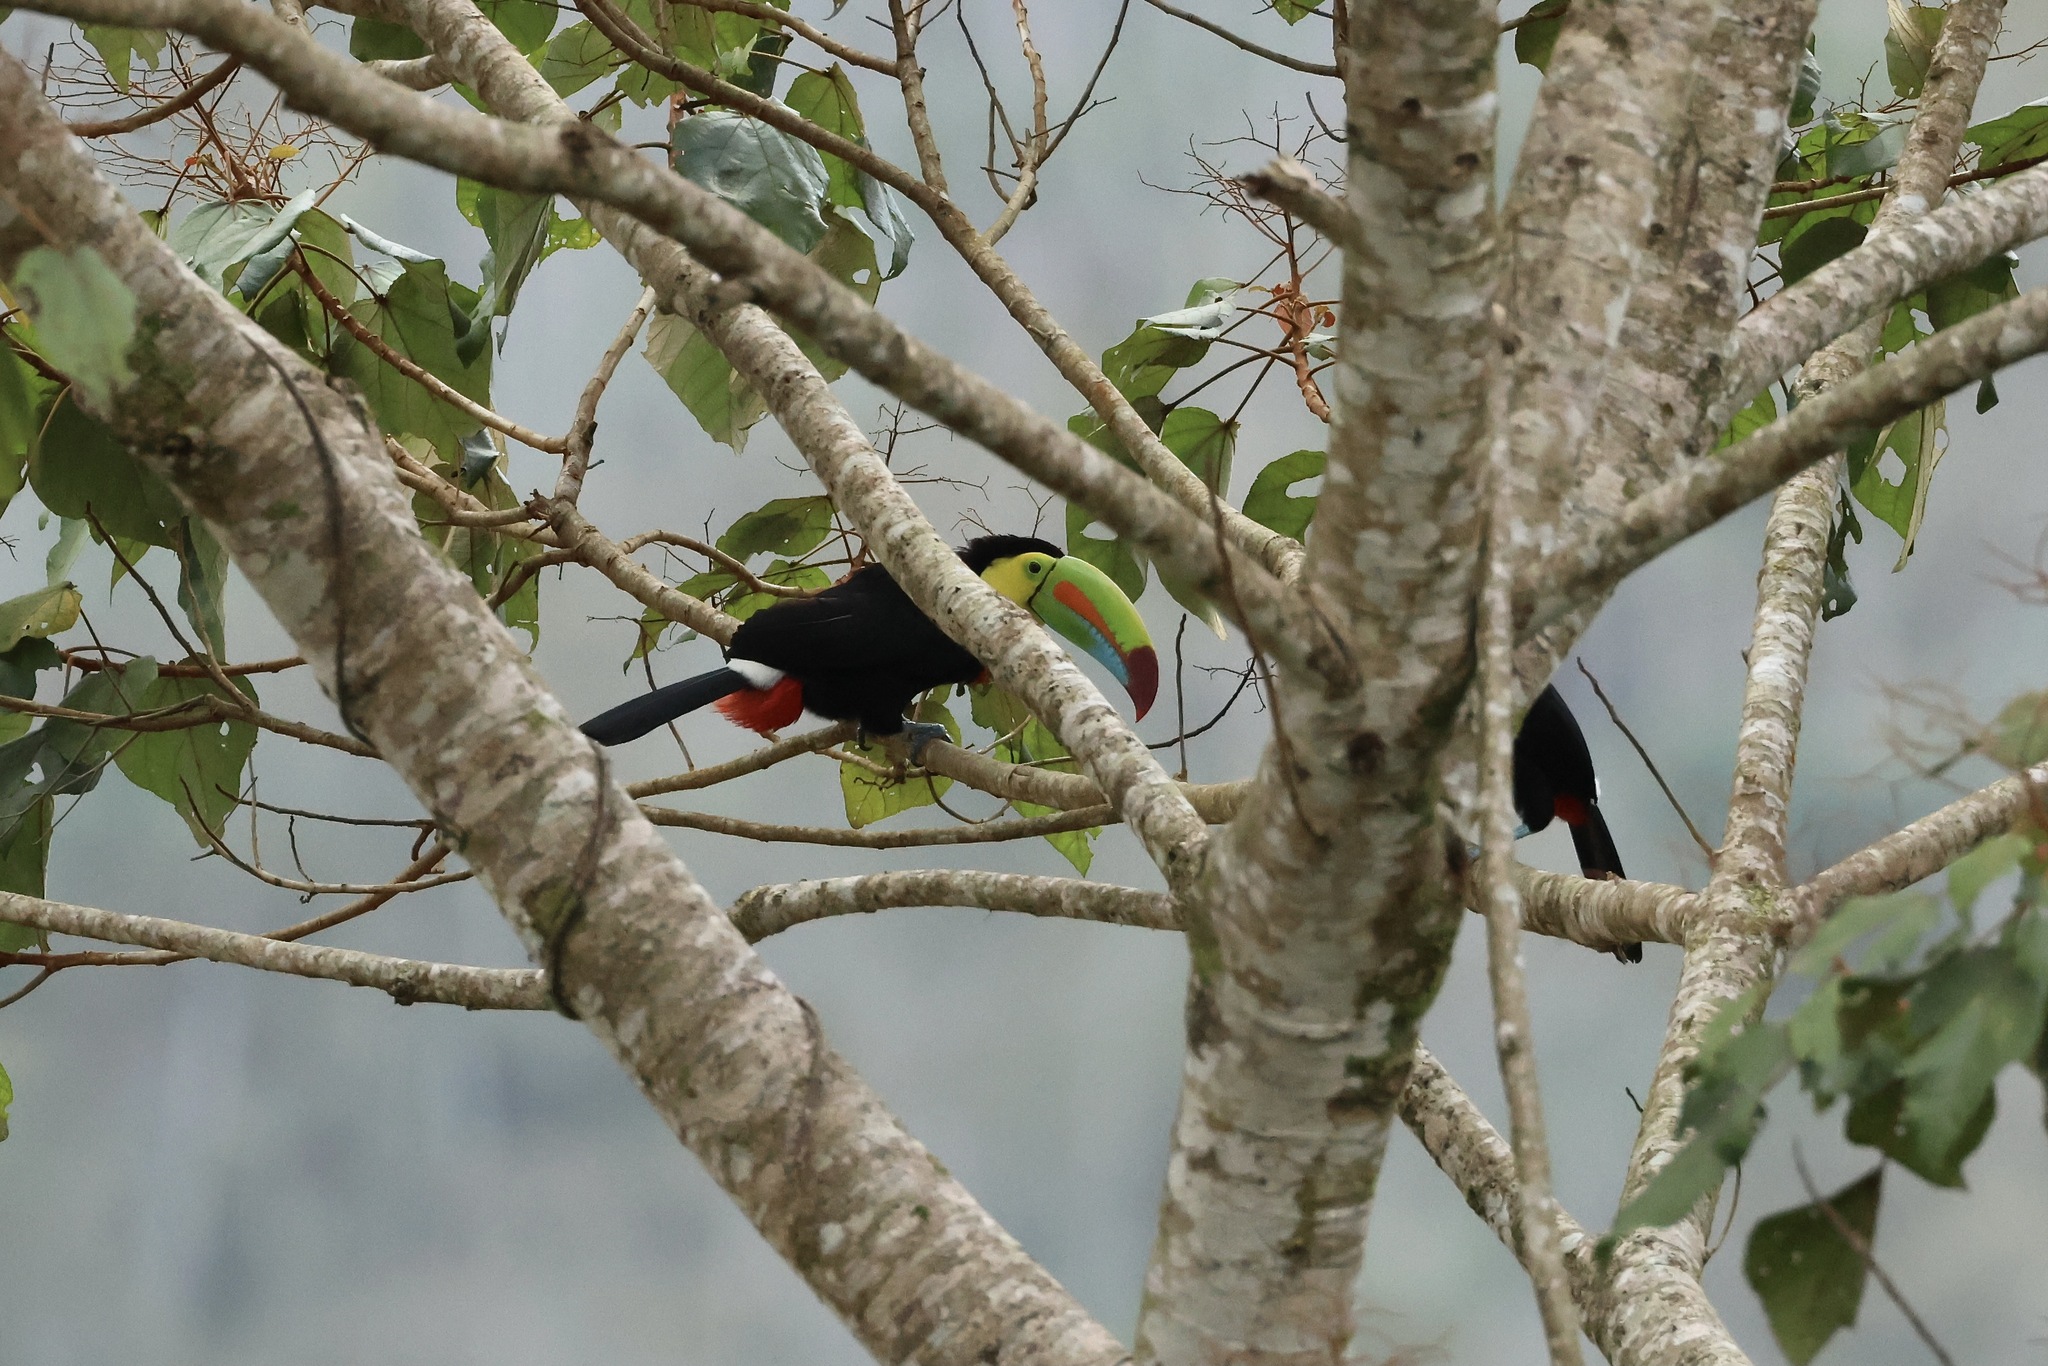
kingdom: Animalia
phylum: Chordata
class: Aves
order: Piciformes
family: Ramphastidae
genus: Ramphastos
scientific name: Ramphastos sulfuratus
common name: Keel-billed toucan
